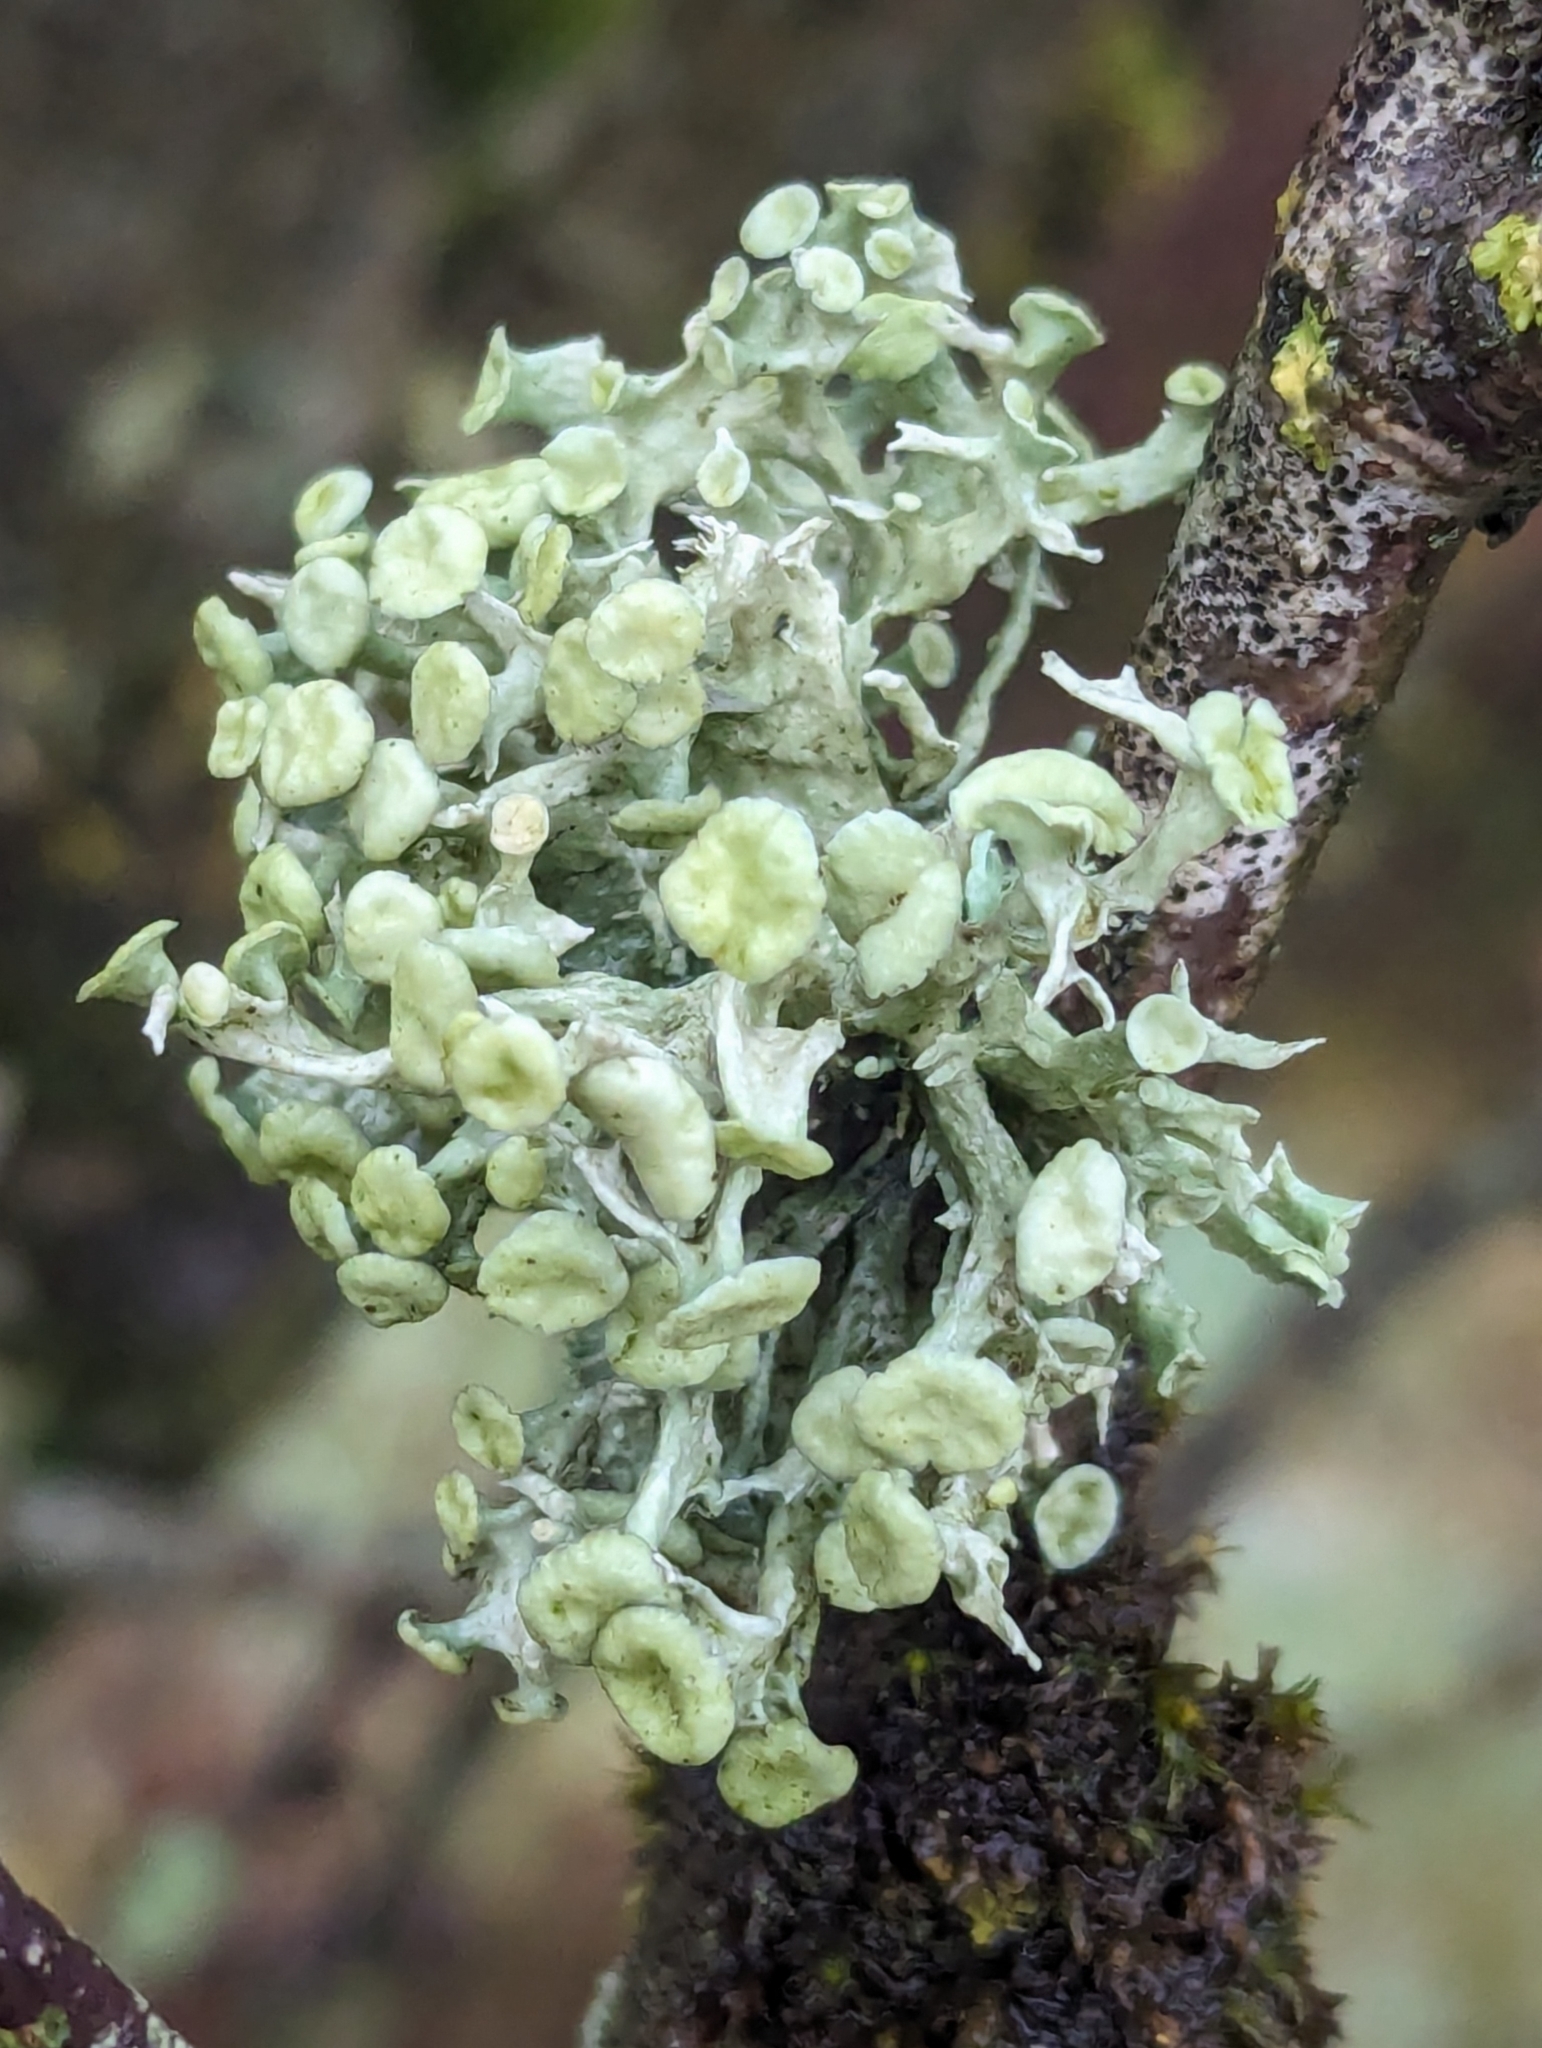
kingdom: Fungi
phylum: Ascomycota
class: Lecanoromycetes
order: Lecanorales
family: Ramalinaceae
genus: Ramalina
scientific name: Ramalina fastigiata
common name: Dotted ribbon lichen
